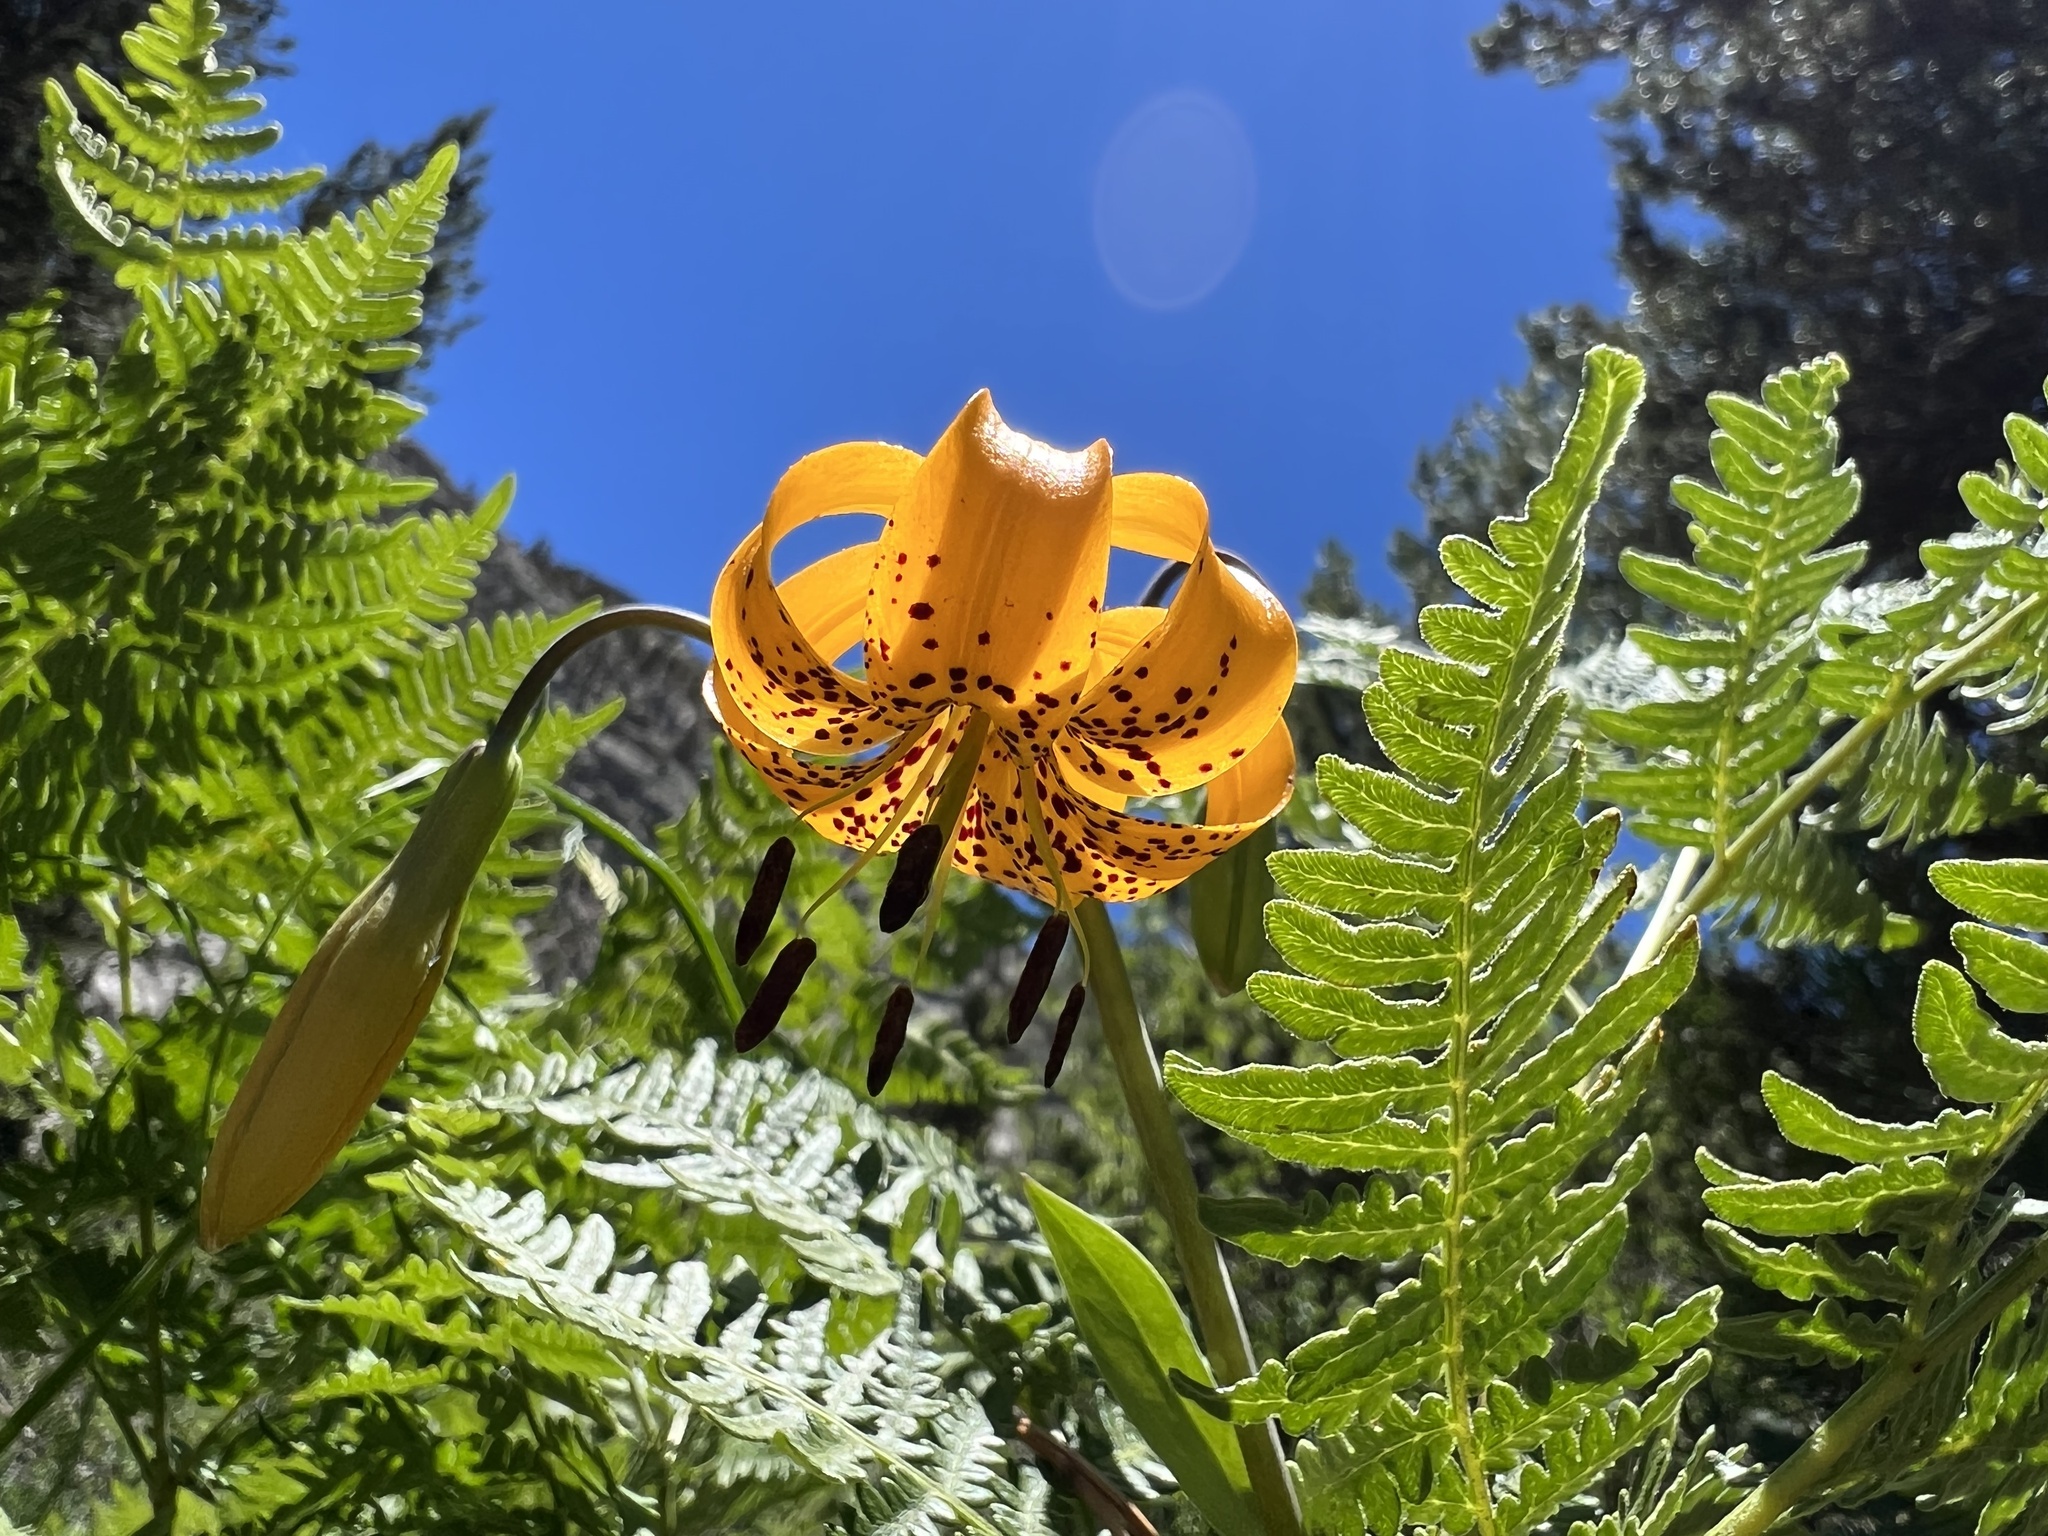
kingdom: Plantae
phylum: Tracheophyta
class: Liliopsida
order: Liliales
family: Liliaceae
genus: Lilium
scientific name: Lilium kelleyanum
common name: Kelley's lily
